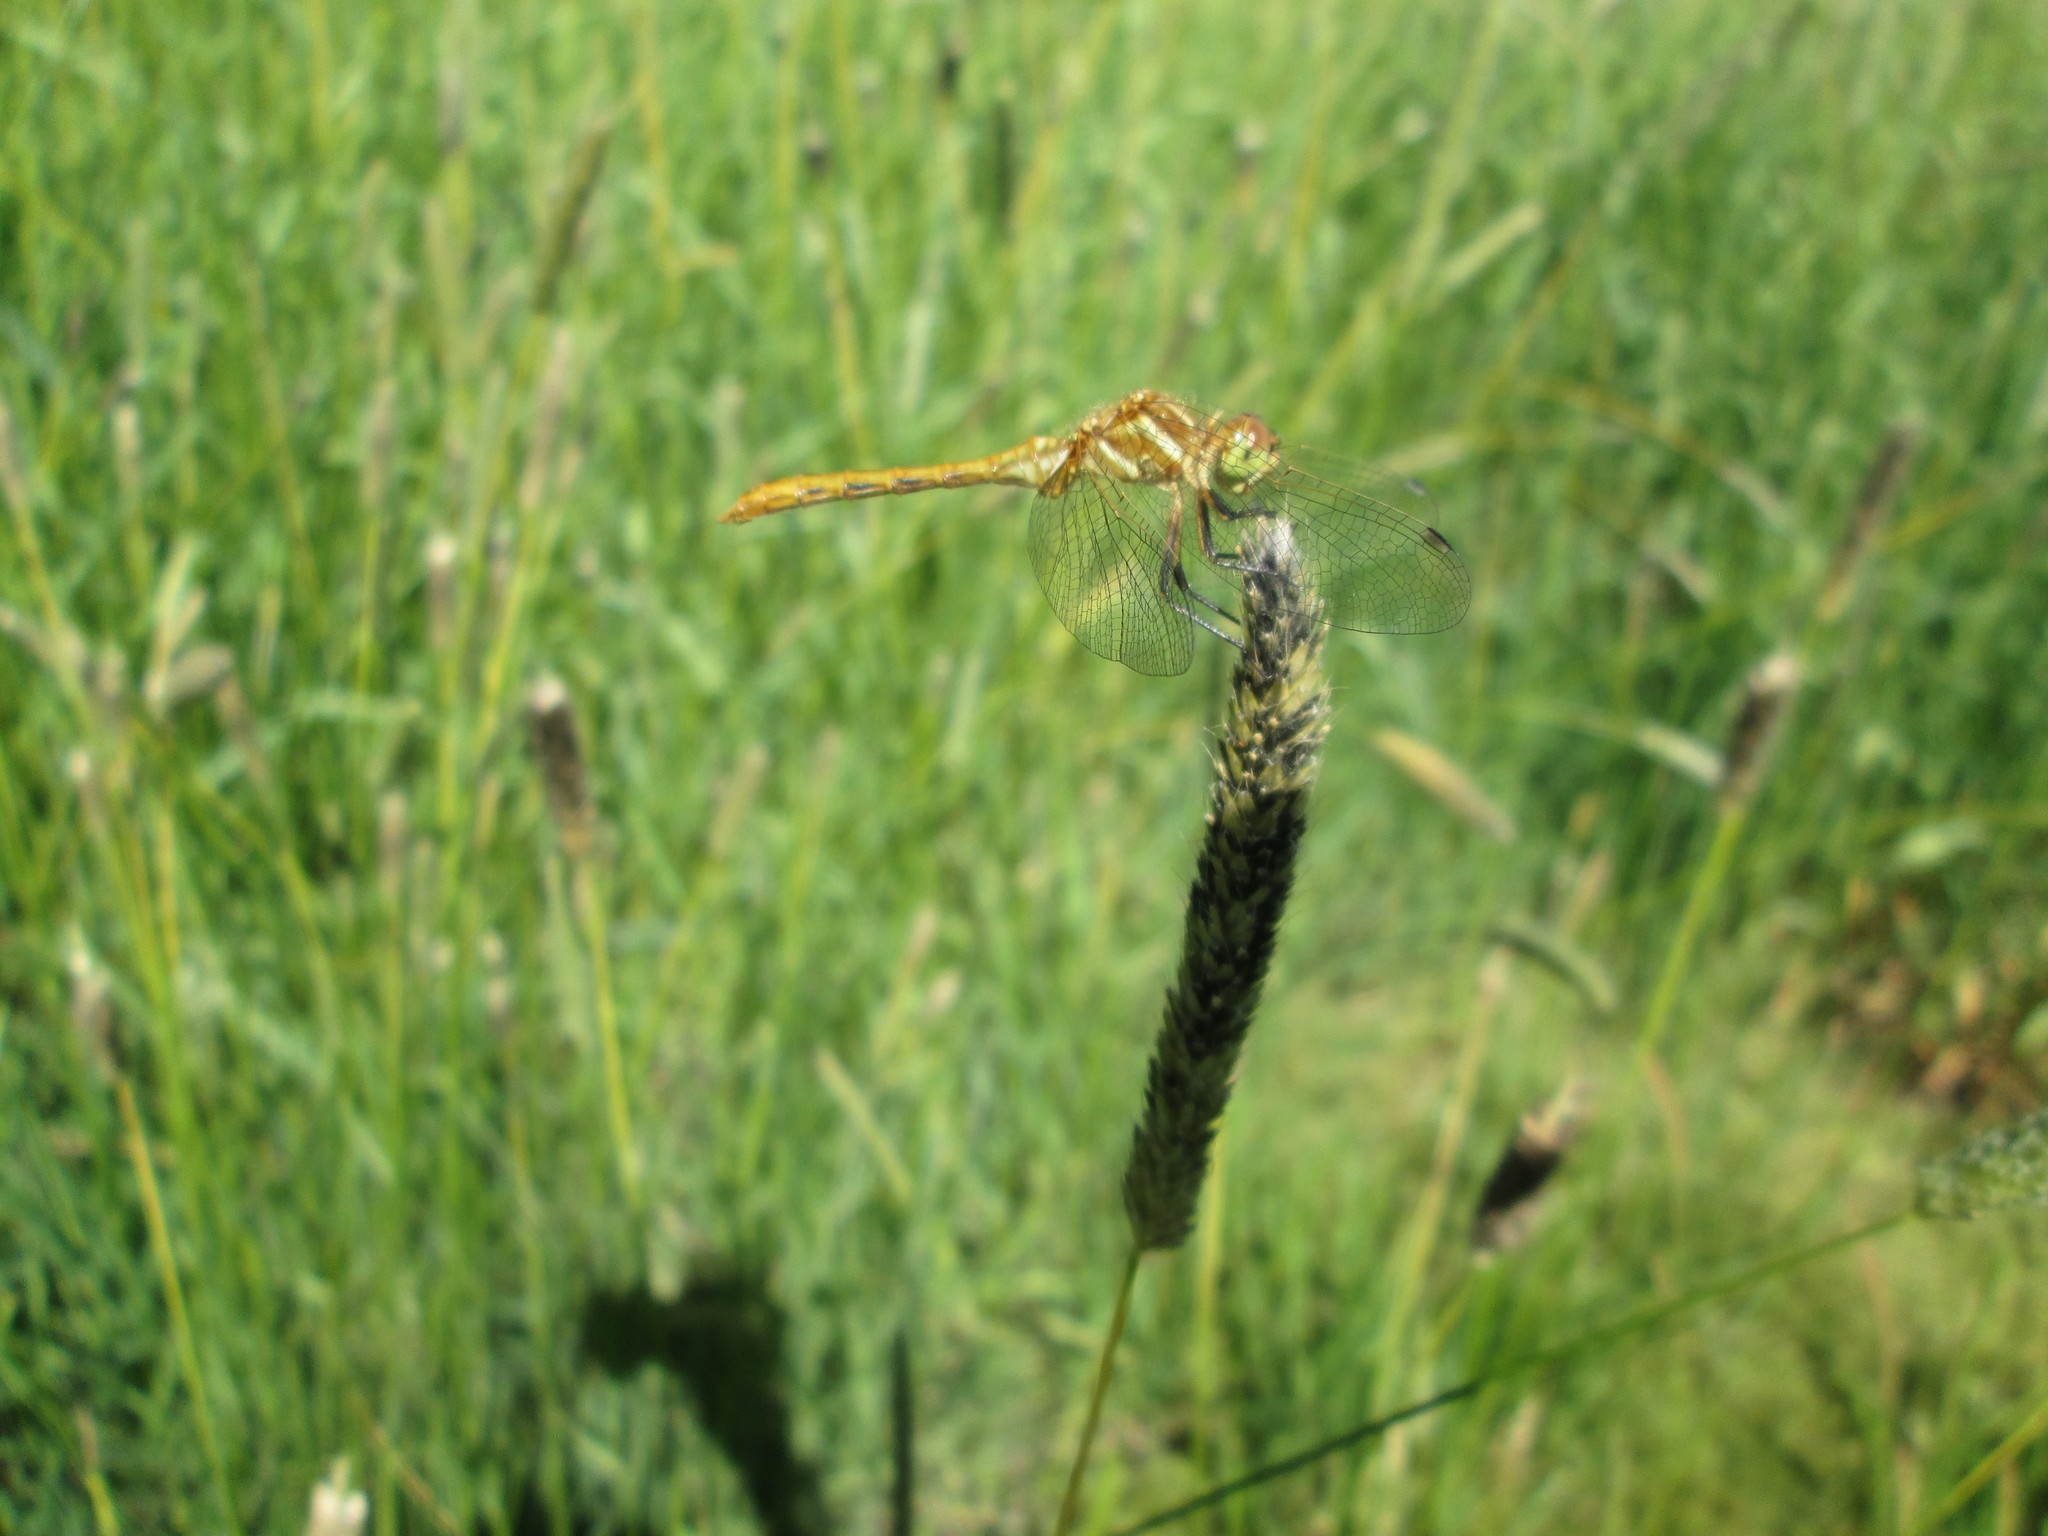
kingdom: Animalia
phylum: Arthropoda
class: Insecta
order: Odonata
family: Libellulidae
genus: Sympetrum
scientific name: Sympetrum pallipes
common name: Striped meadowhawk
